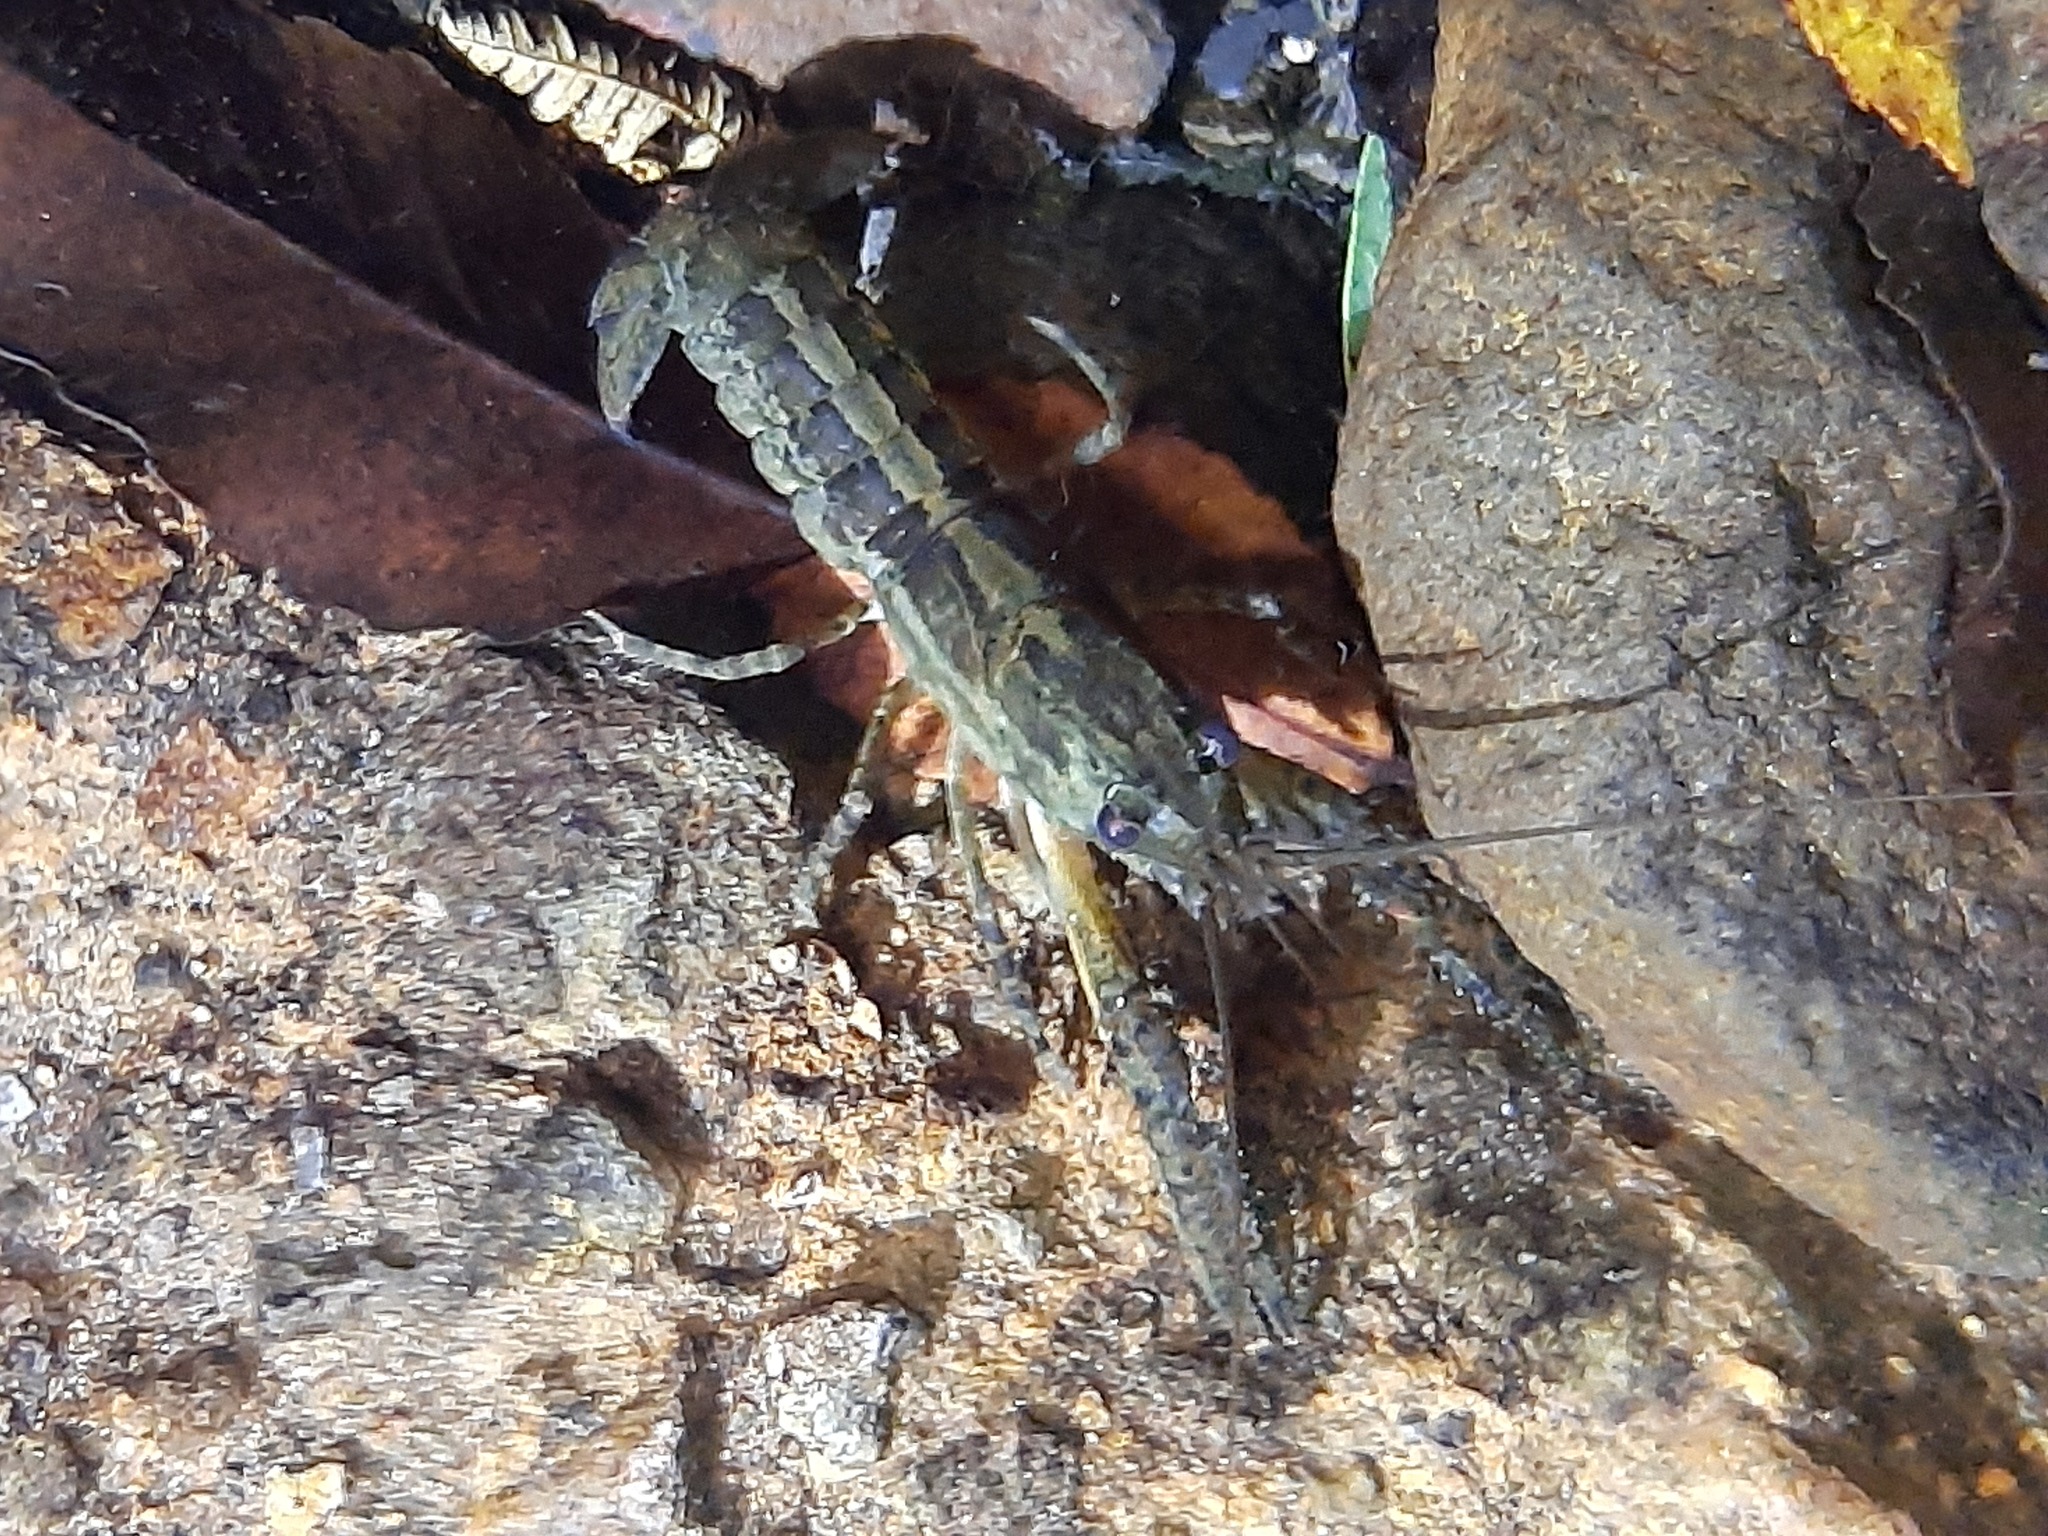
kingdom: Animalia
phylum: Arthropoda
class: Malacostraca
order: Decapoda
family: Parastacidae
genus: Paranephrops
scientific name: Paranephrops planifrons
